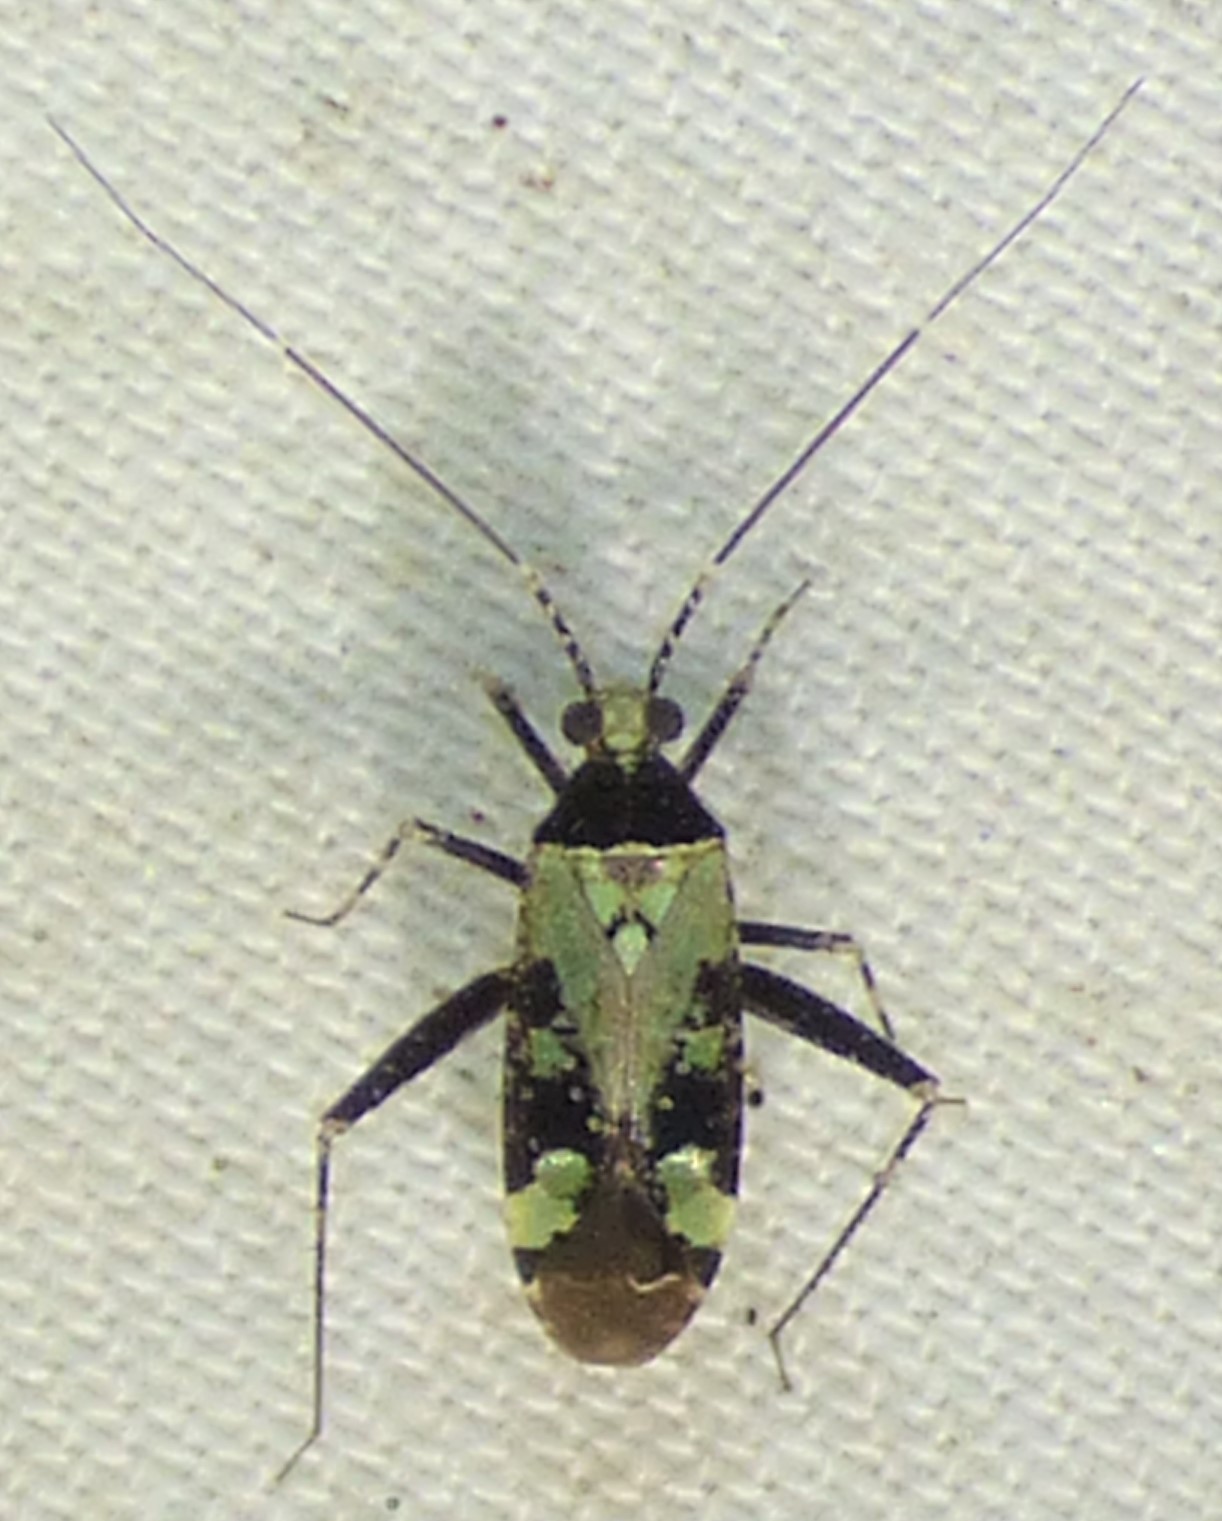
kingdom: Animalia
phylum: Arthropoda
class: Insecta
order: Hemiptera
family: Miridae
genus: Phytocoris
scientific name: Phytocoris nigricollis
